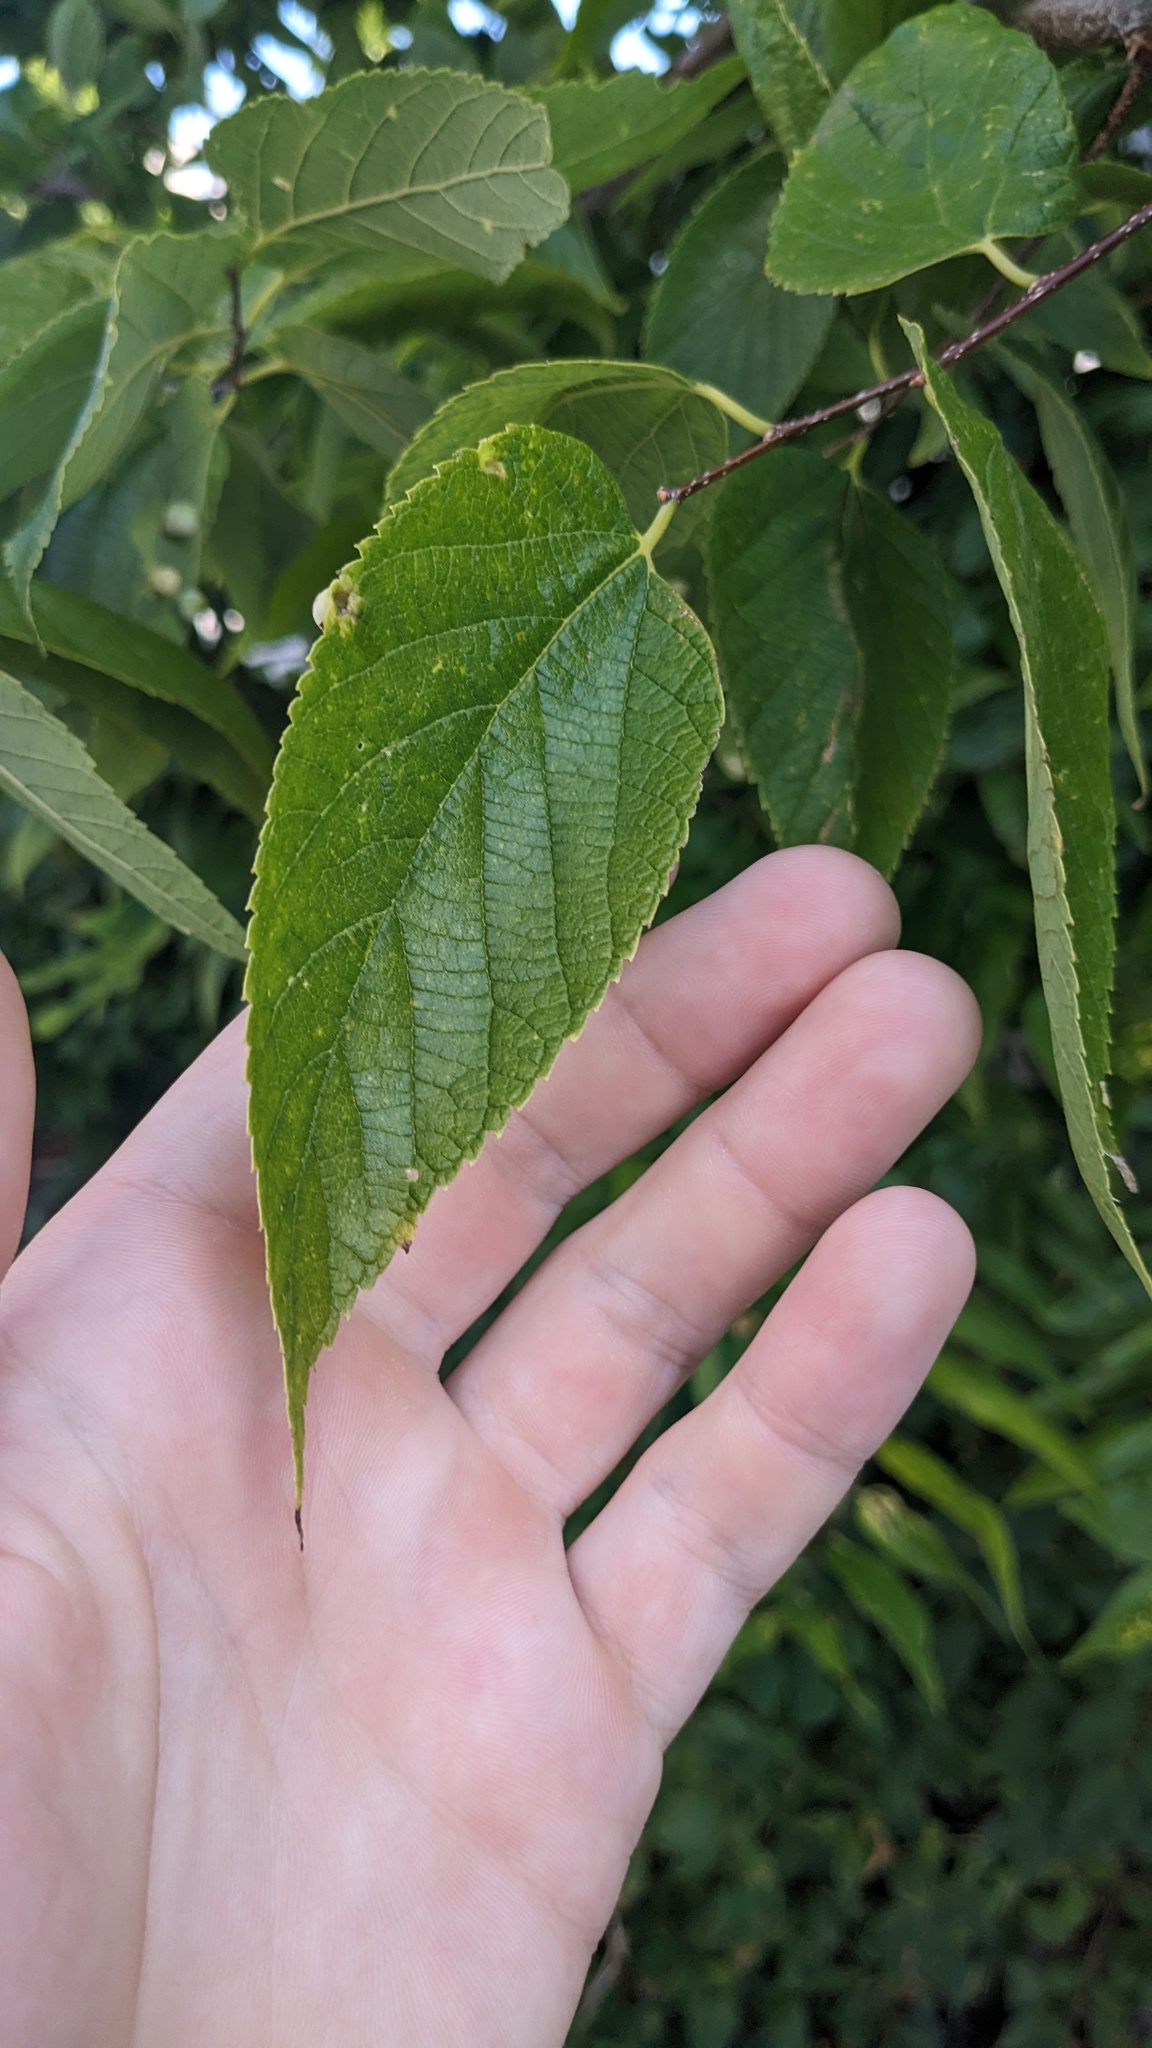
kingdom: Plantae
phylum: Tracheophyta
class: Magnoliopsida
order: Rosales
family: Cannabaceae
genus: Celtis
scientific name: Celtis occidentalis
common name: Common hackberry
